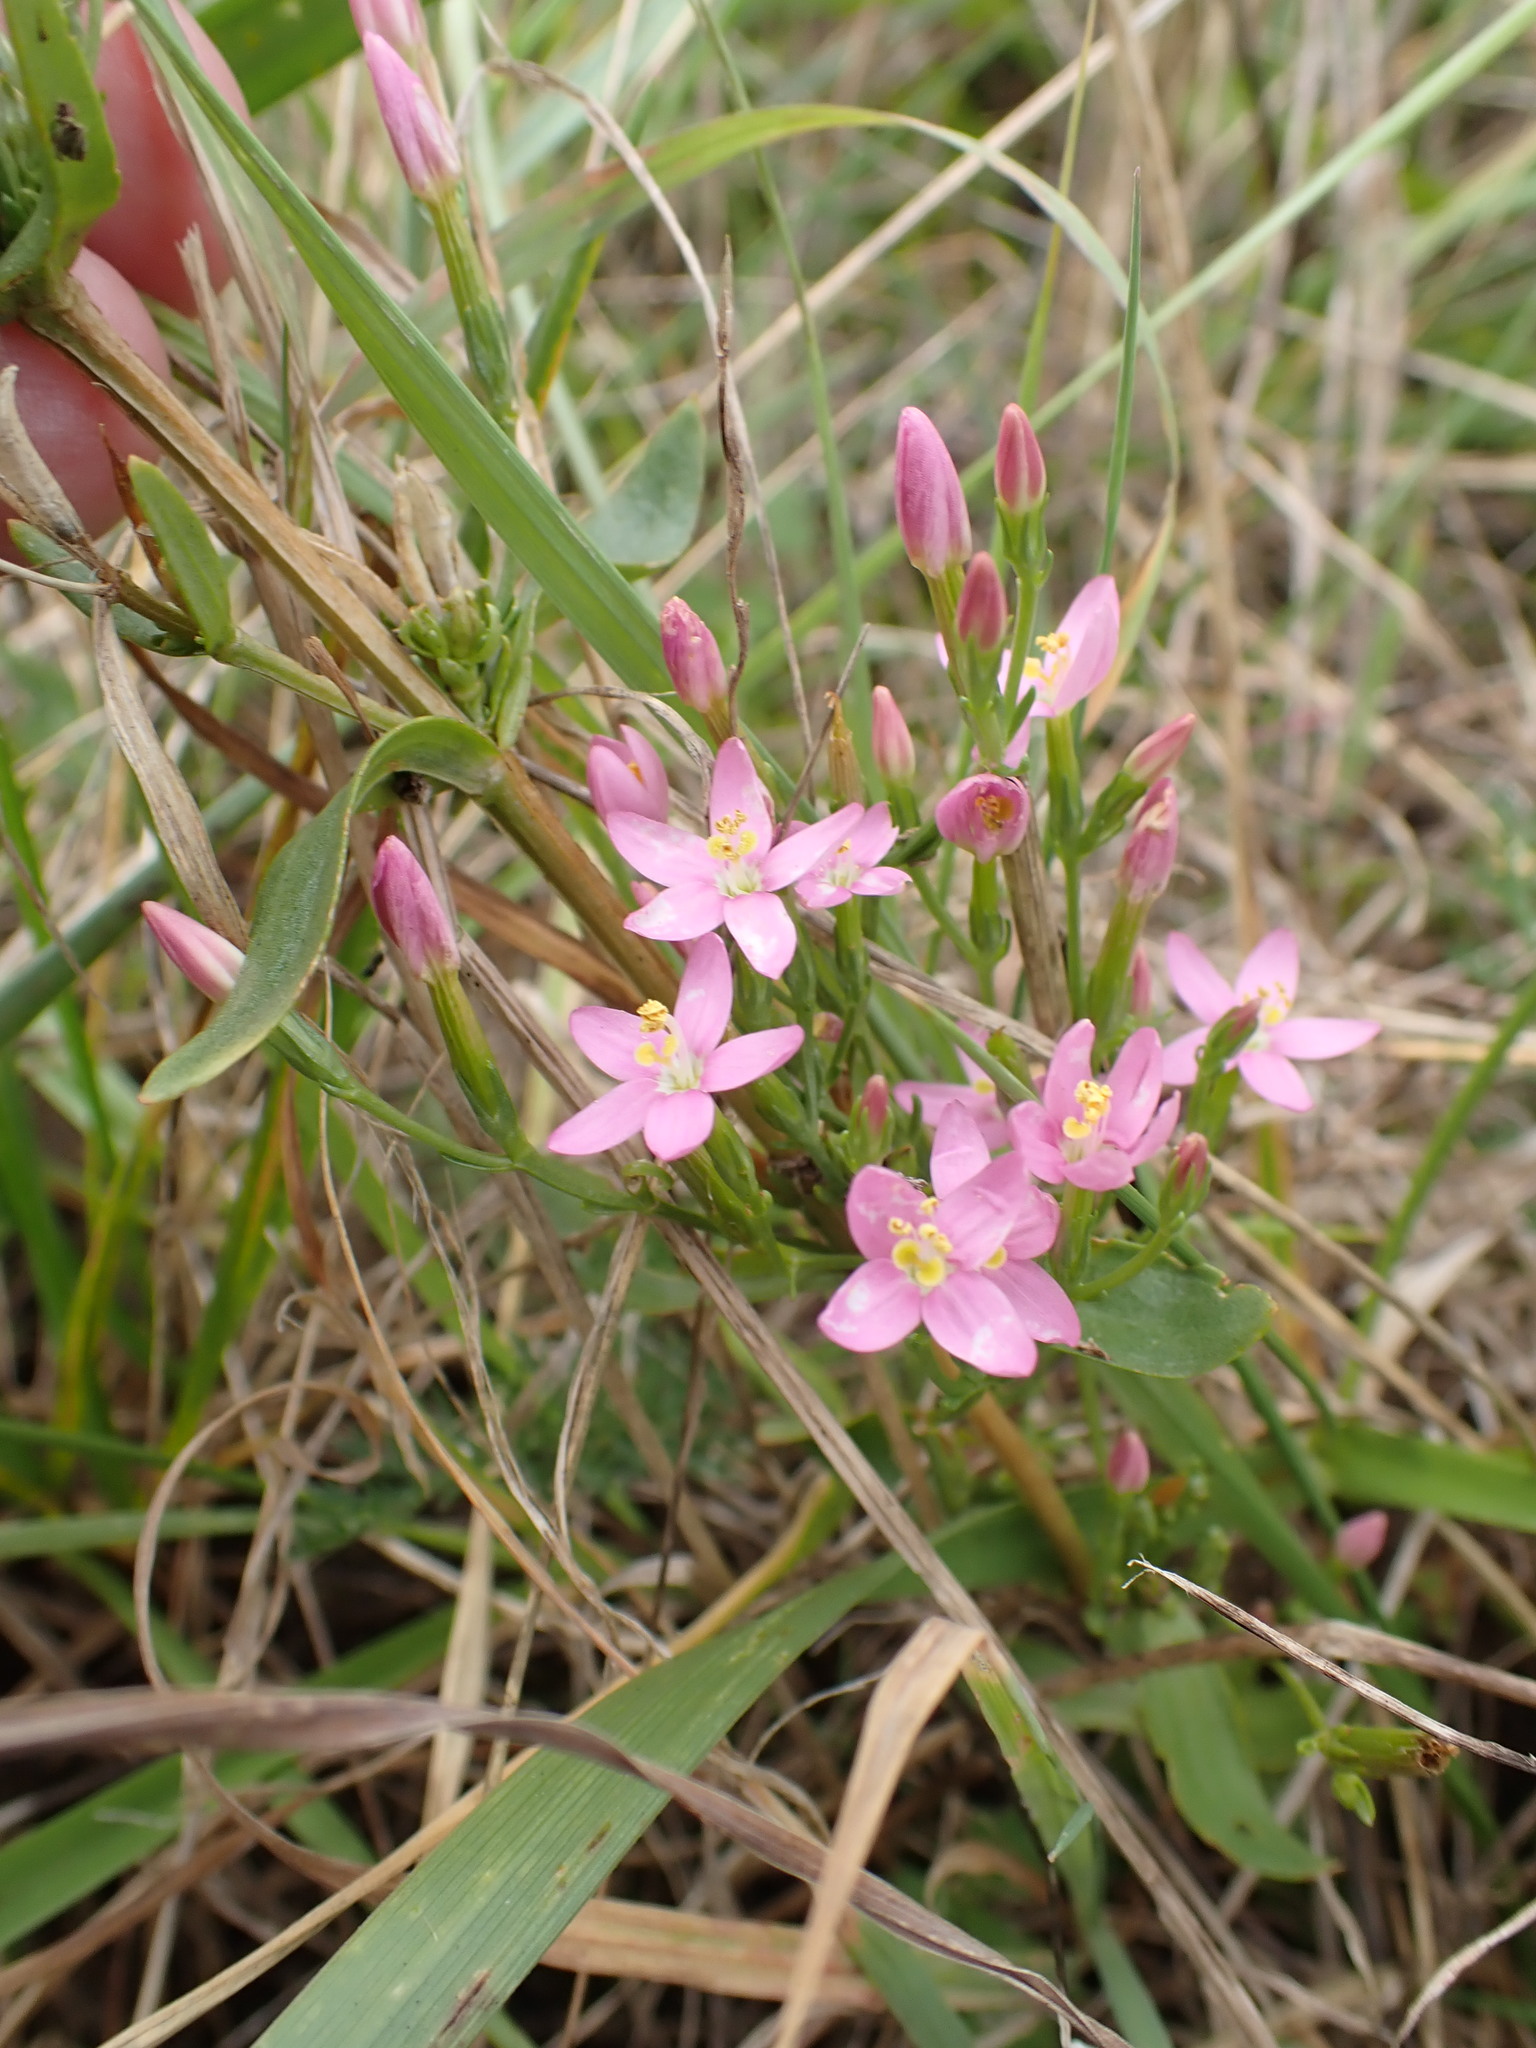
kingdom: Plantae
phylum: Tracheophyta
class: Magnoliopsida
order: Gentianales
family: Gentianaceae
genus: Centaurium
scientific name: Centaurium erythraea
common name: Common centaury
